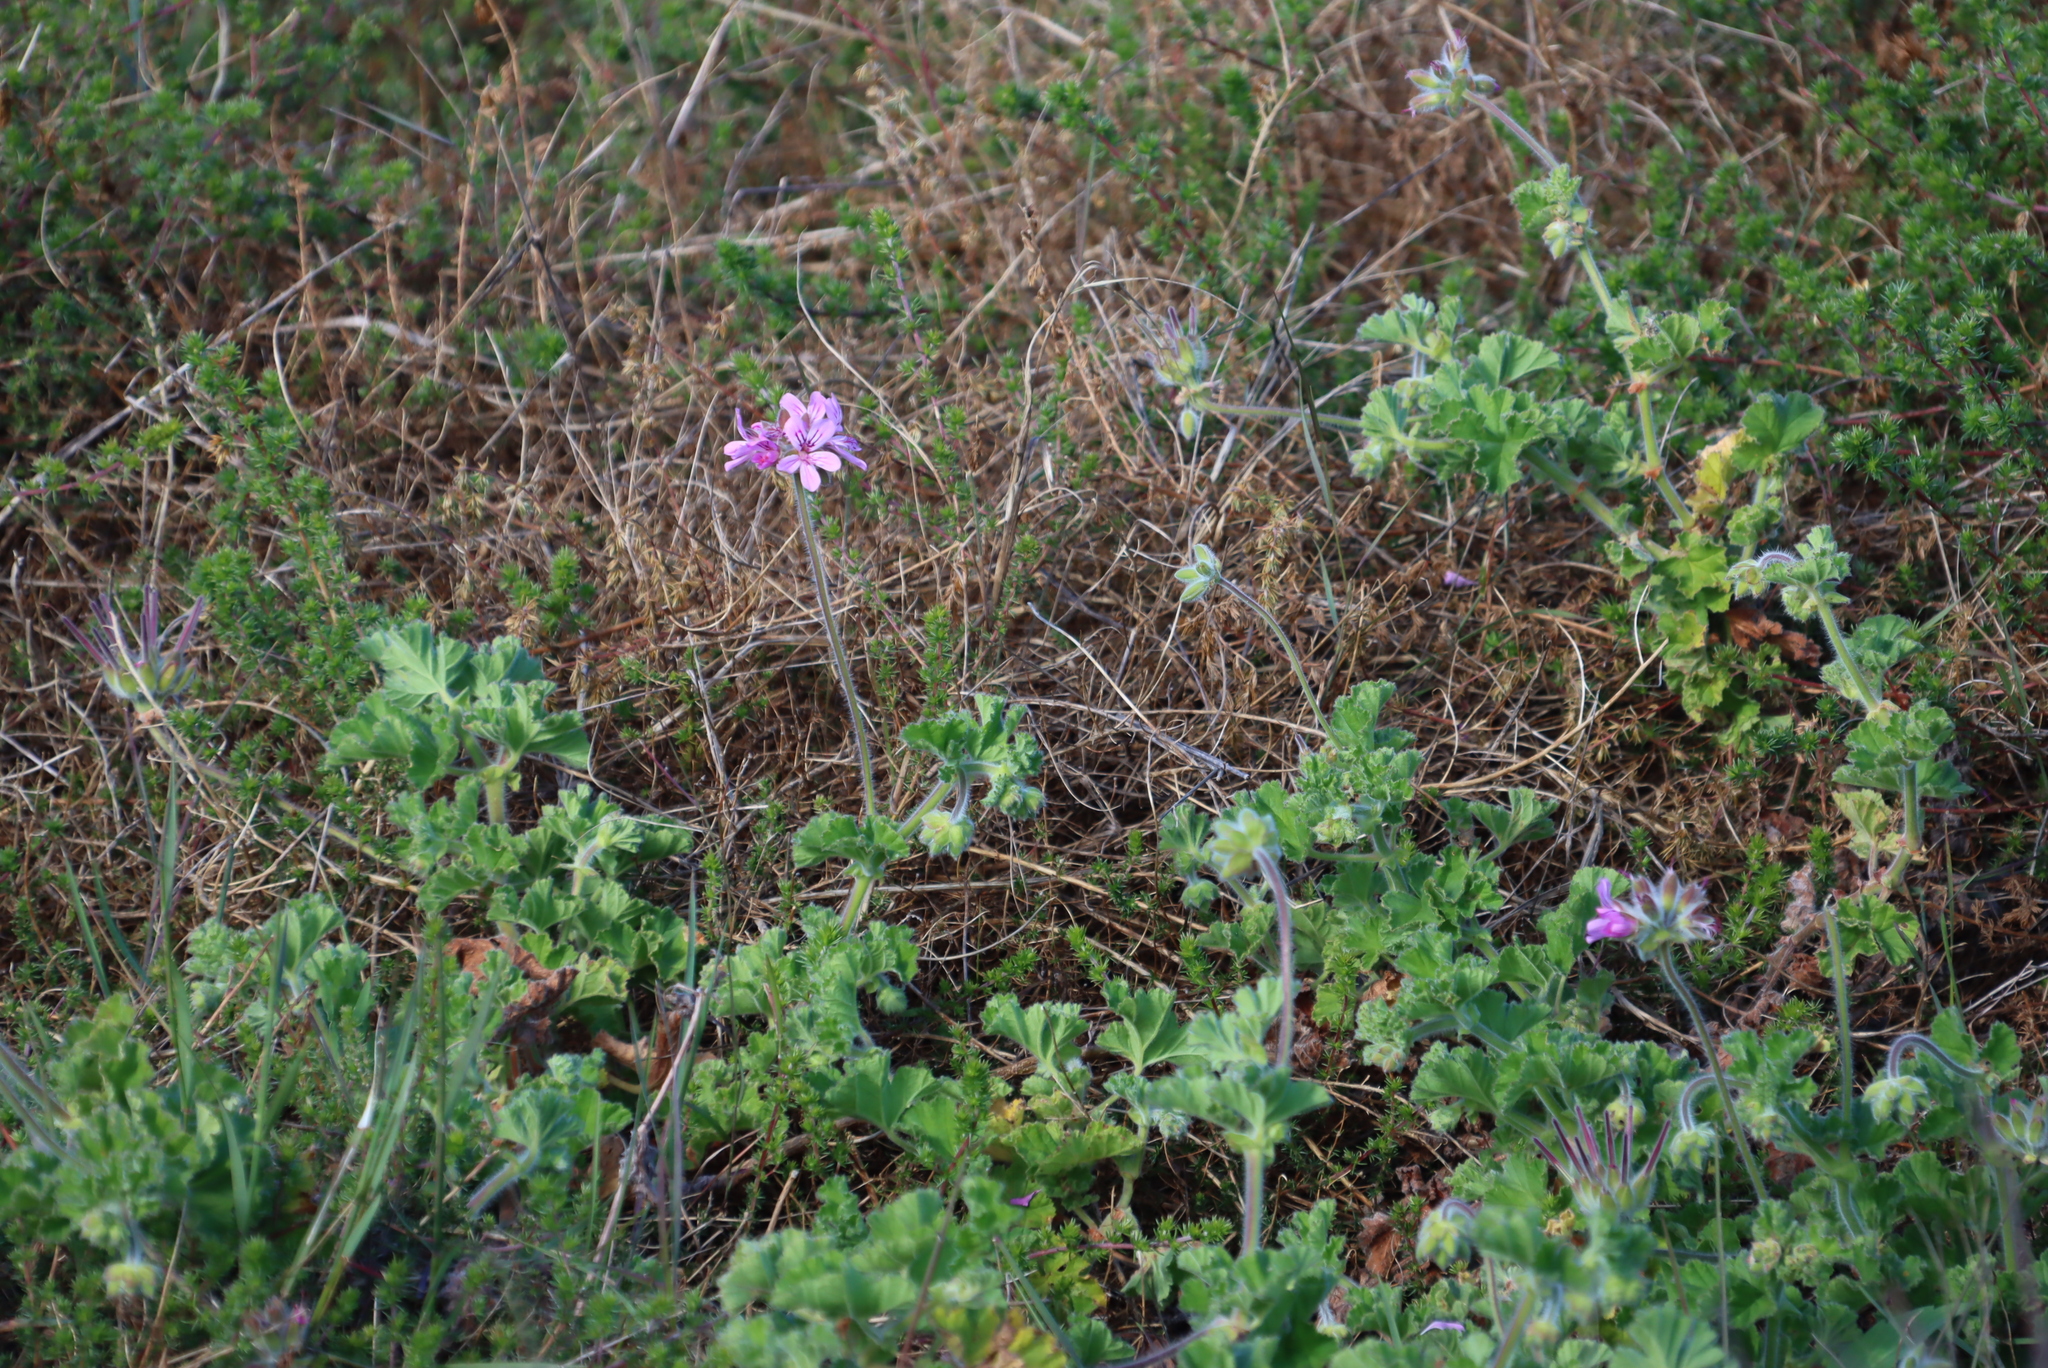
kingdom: Plantae
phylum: Tracheophyta
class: Magnoliopsida
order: Geraniales
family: Geraniaceae
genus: Pelargonium
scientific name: Pelargonium capitatum
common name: Rose scented geranium
